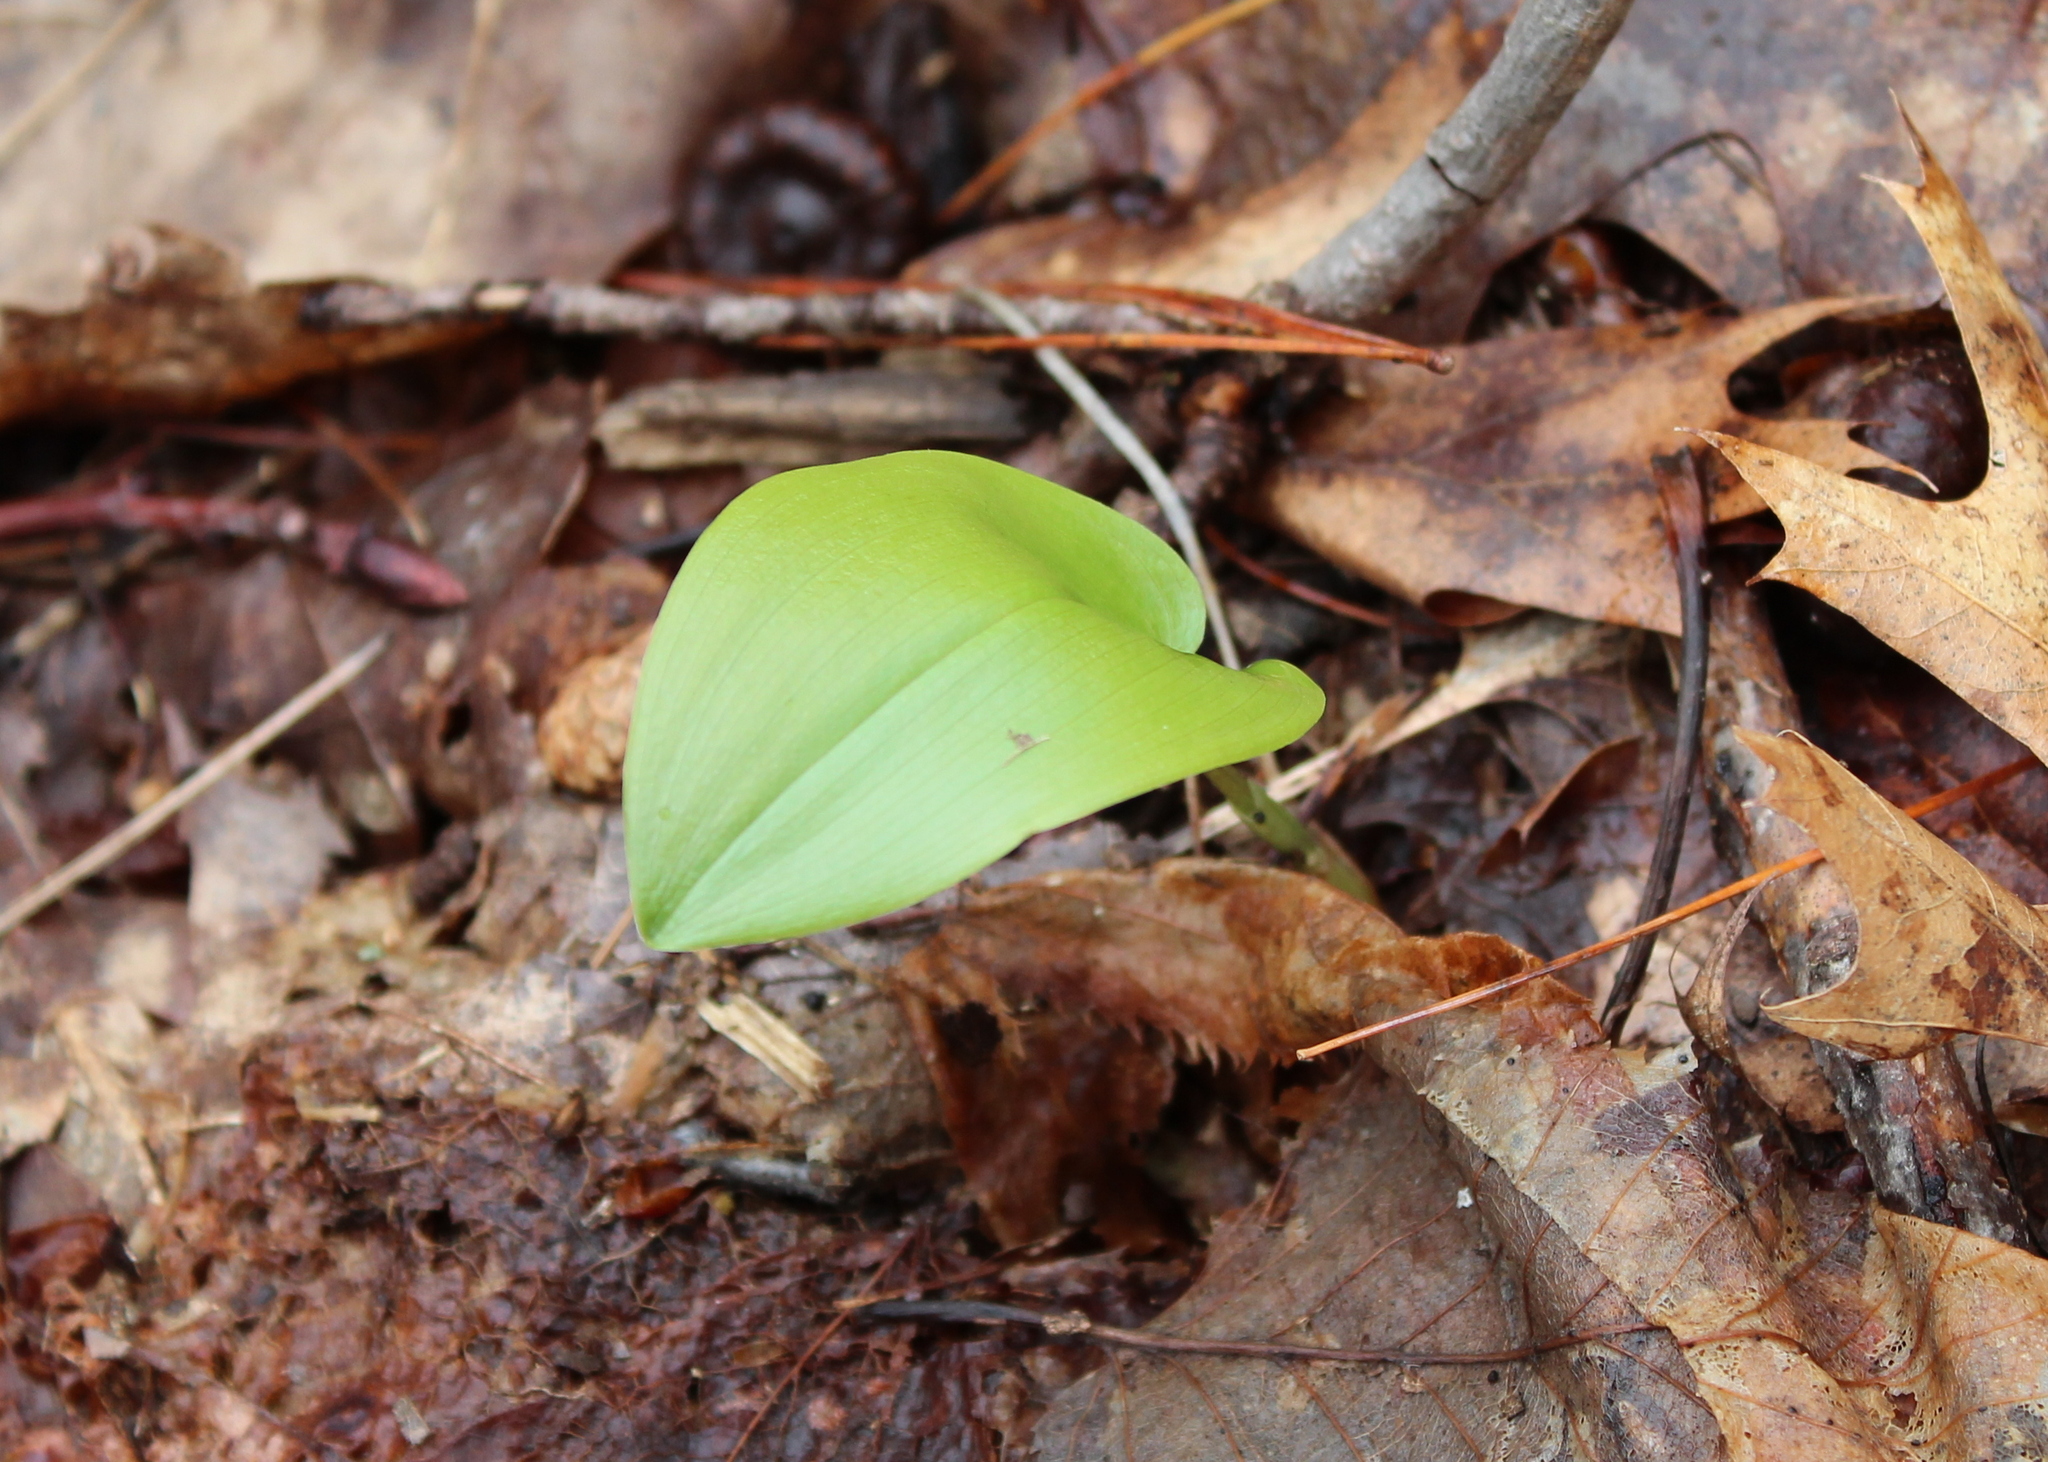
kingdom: Plantae
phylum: Tracheophyta
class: Liliopsida
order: Asparagales
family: Asparagaceae
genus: Maianthemum
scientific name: Maianthemum canadense
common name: False lily-of-the-valley
